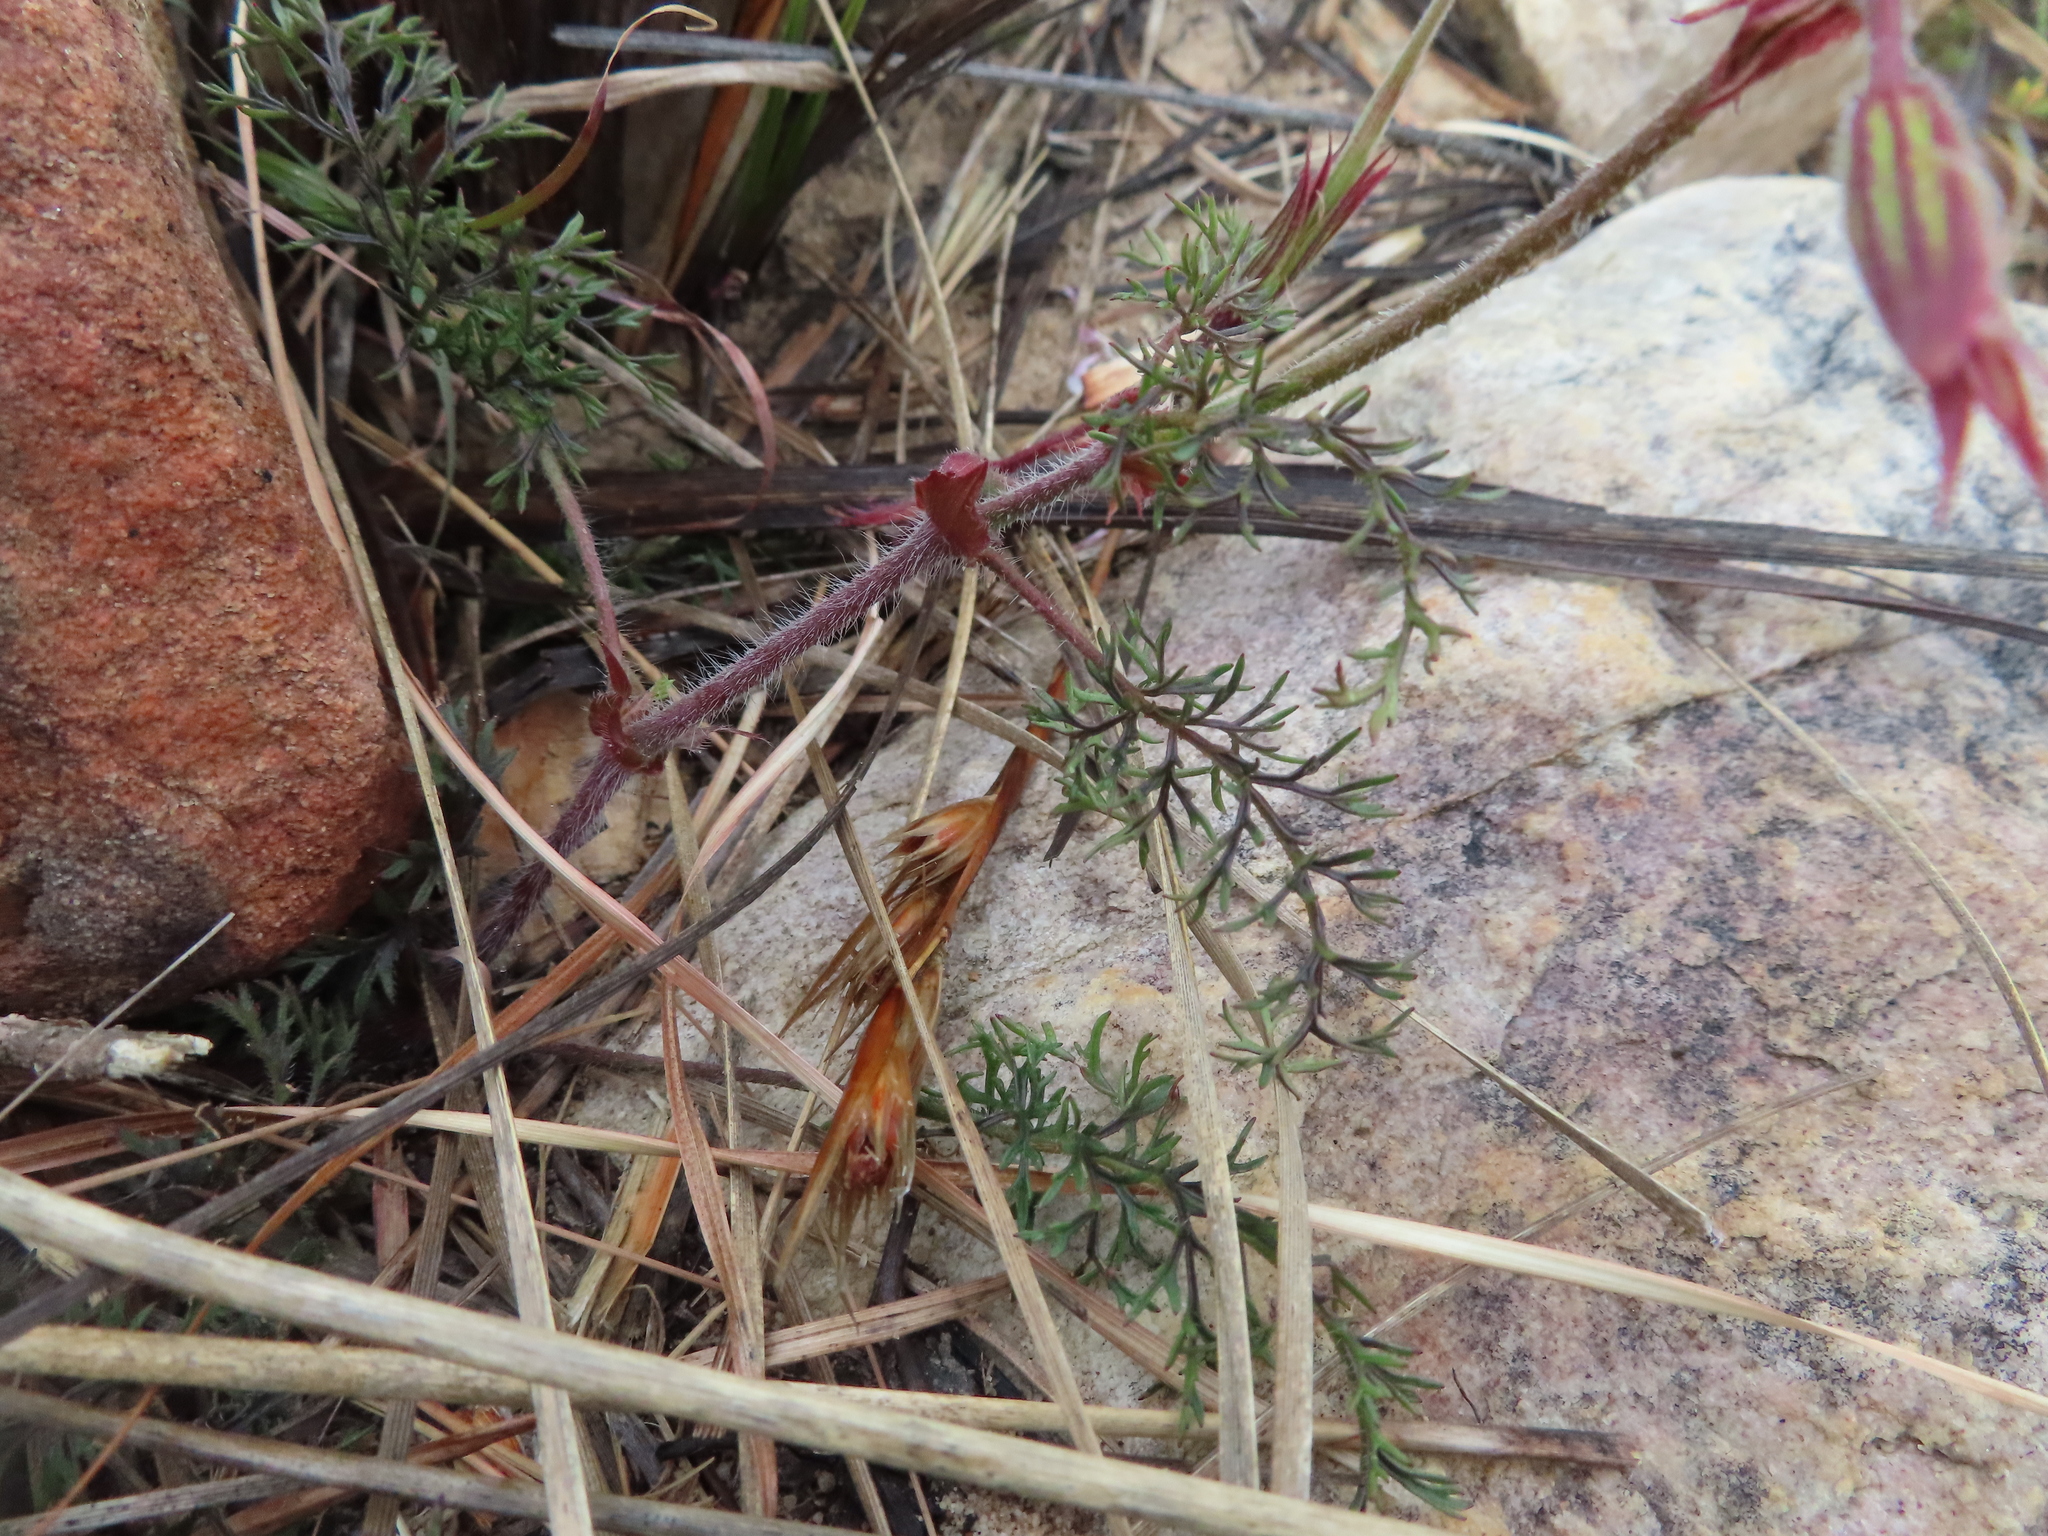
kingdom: Plantae
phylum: Tracheophyta
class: Magnoliopsida
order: Geraniales
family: Geraniaceae
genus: Pelargonium
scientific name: Pelargonium myrrhifolium
